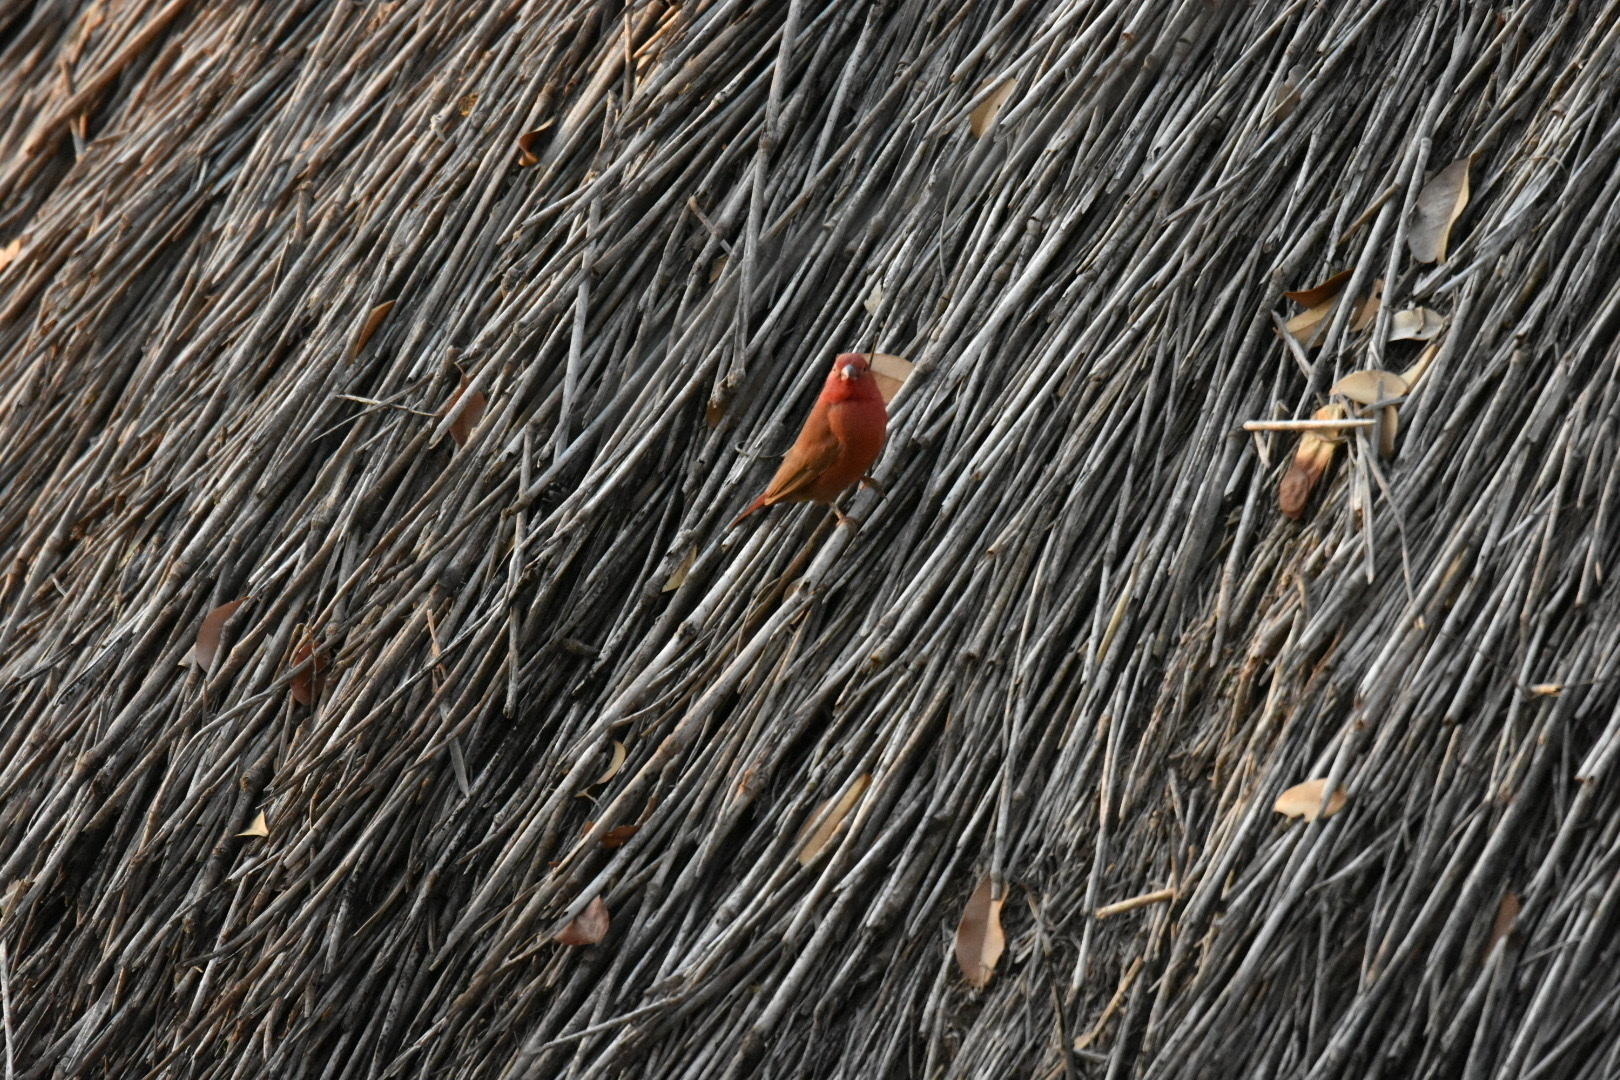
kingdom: Animalia
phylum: Chordata
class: Aves
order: Passeriformes
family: Estrildidae
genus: Lagonosticta
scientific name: Lagonosticta senegala
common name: Red-billed firefinch
